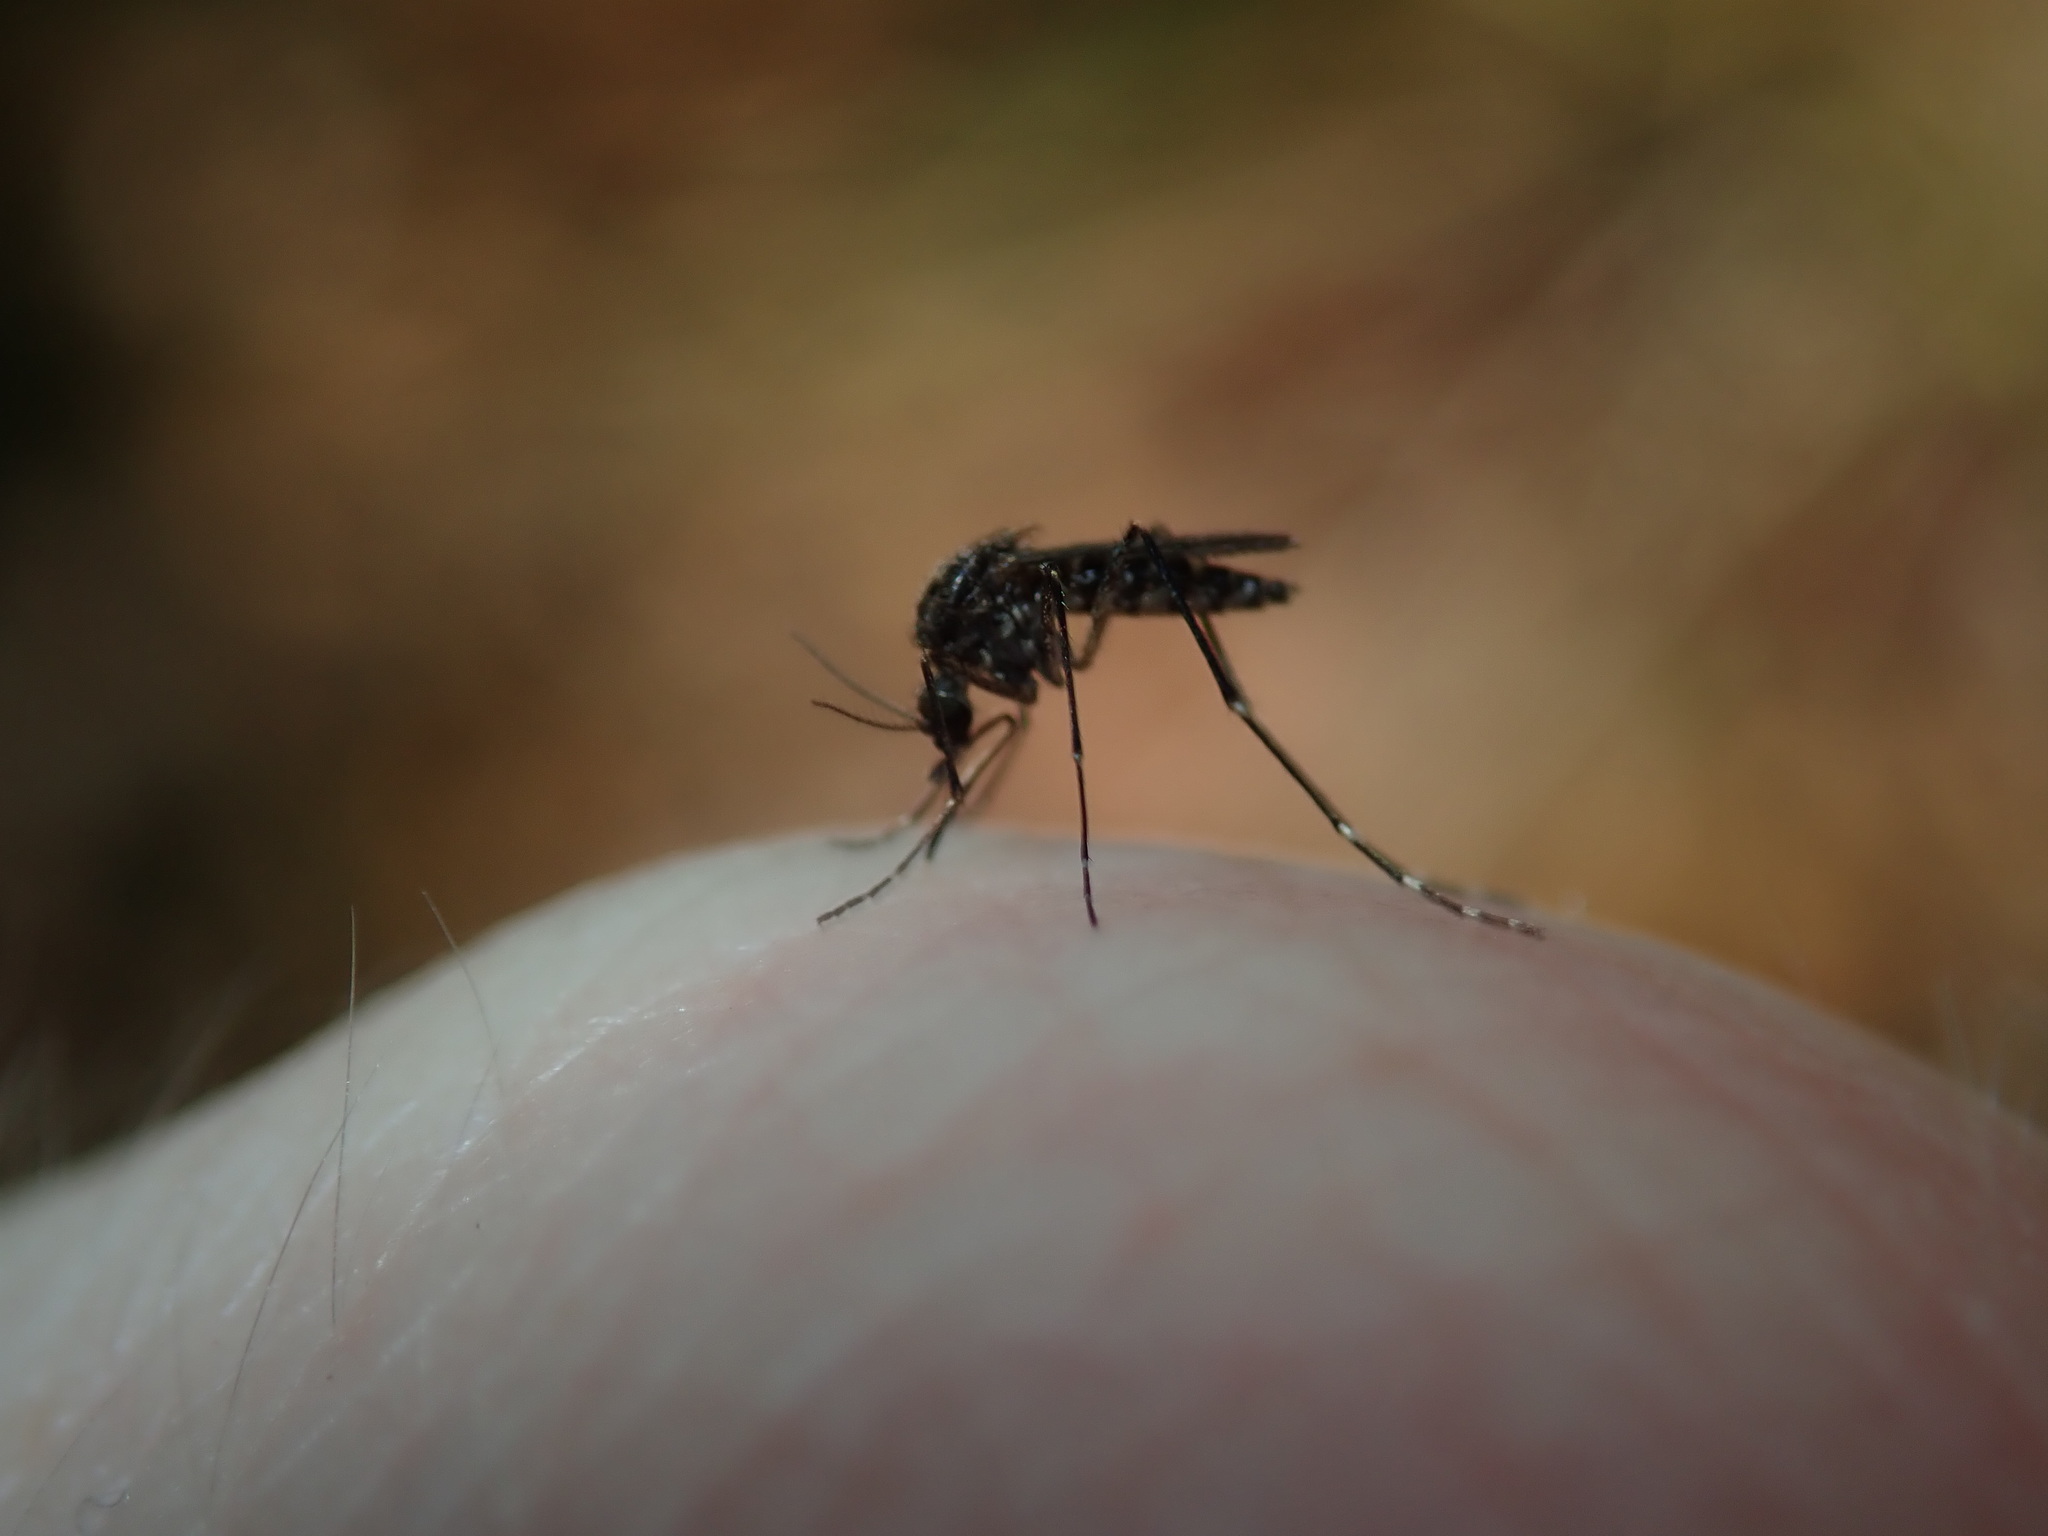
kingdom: Animalia
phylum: Arthropoda
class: Insecta
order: Diptera
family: Culicidae
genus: Aedes
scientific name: Aedes vigilax
